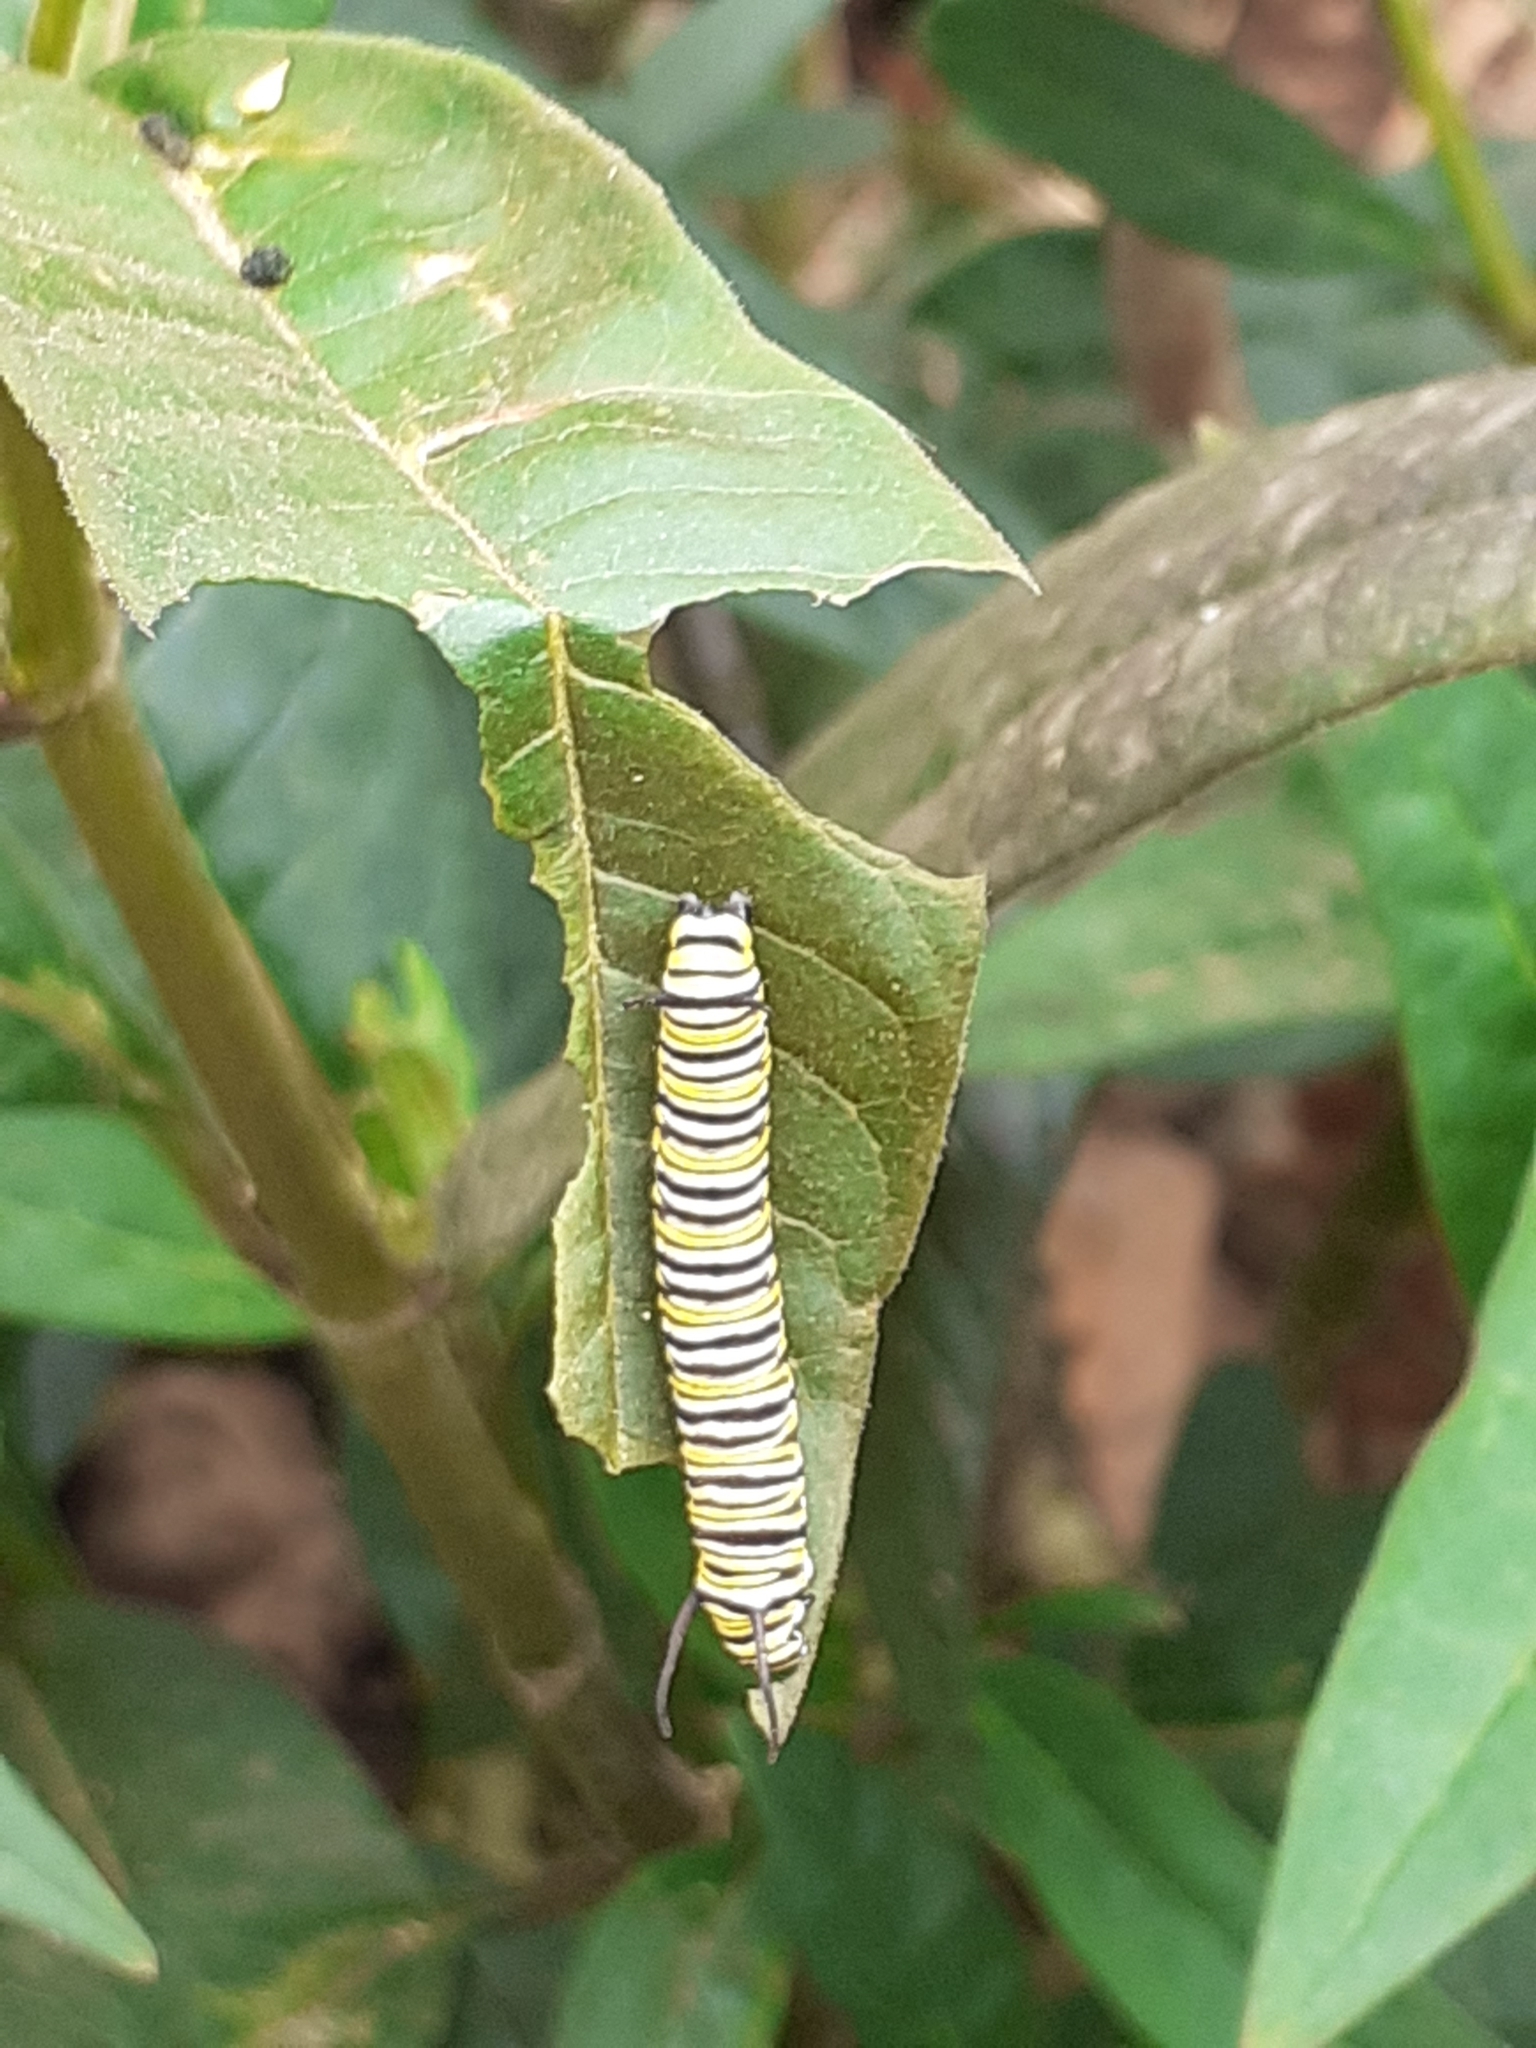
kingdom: Animalia
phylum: Arthropoda
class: Insecta
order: Lepidoptera
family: Nymphalidae
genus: Danaus
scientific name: Danaus plexippus
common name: Monarch
